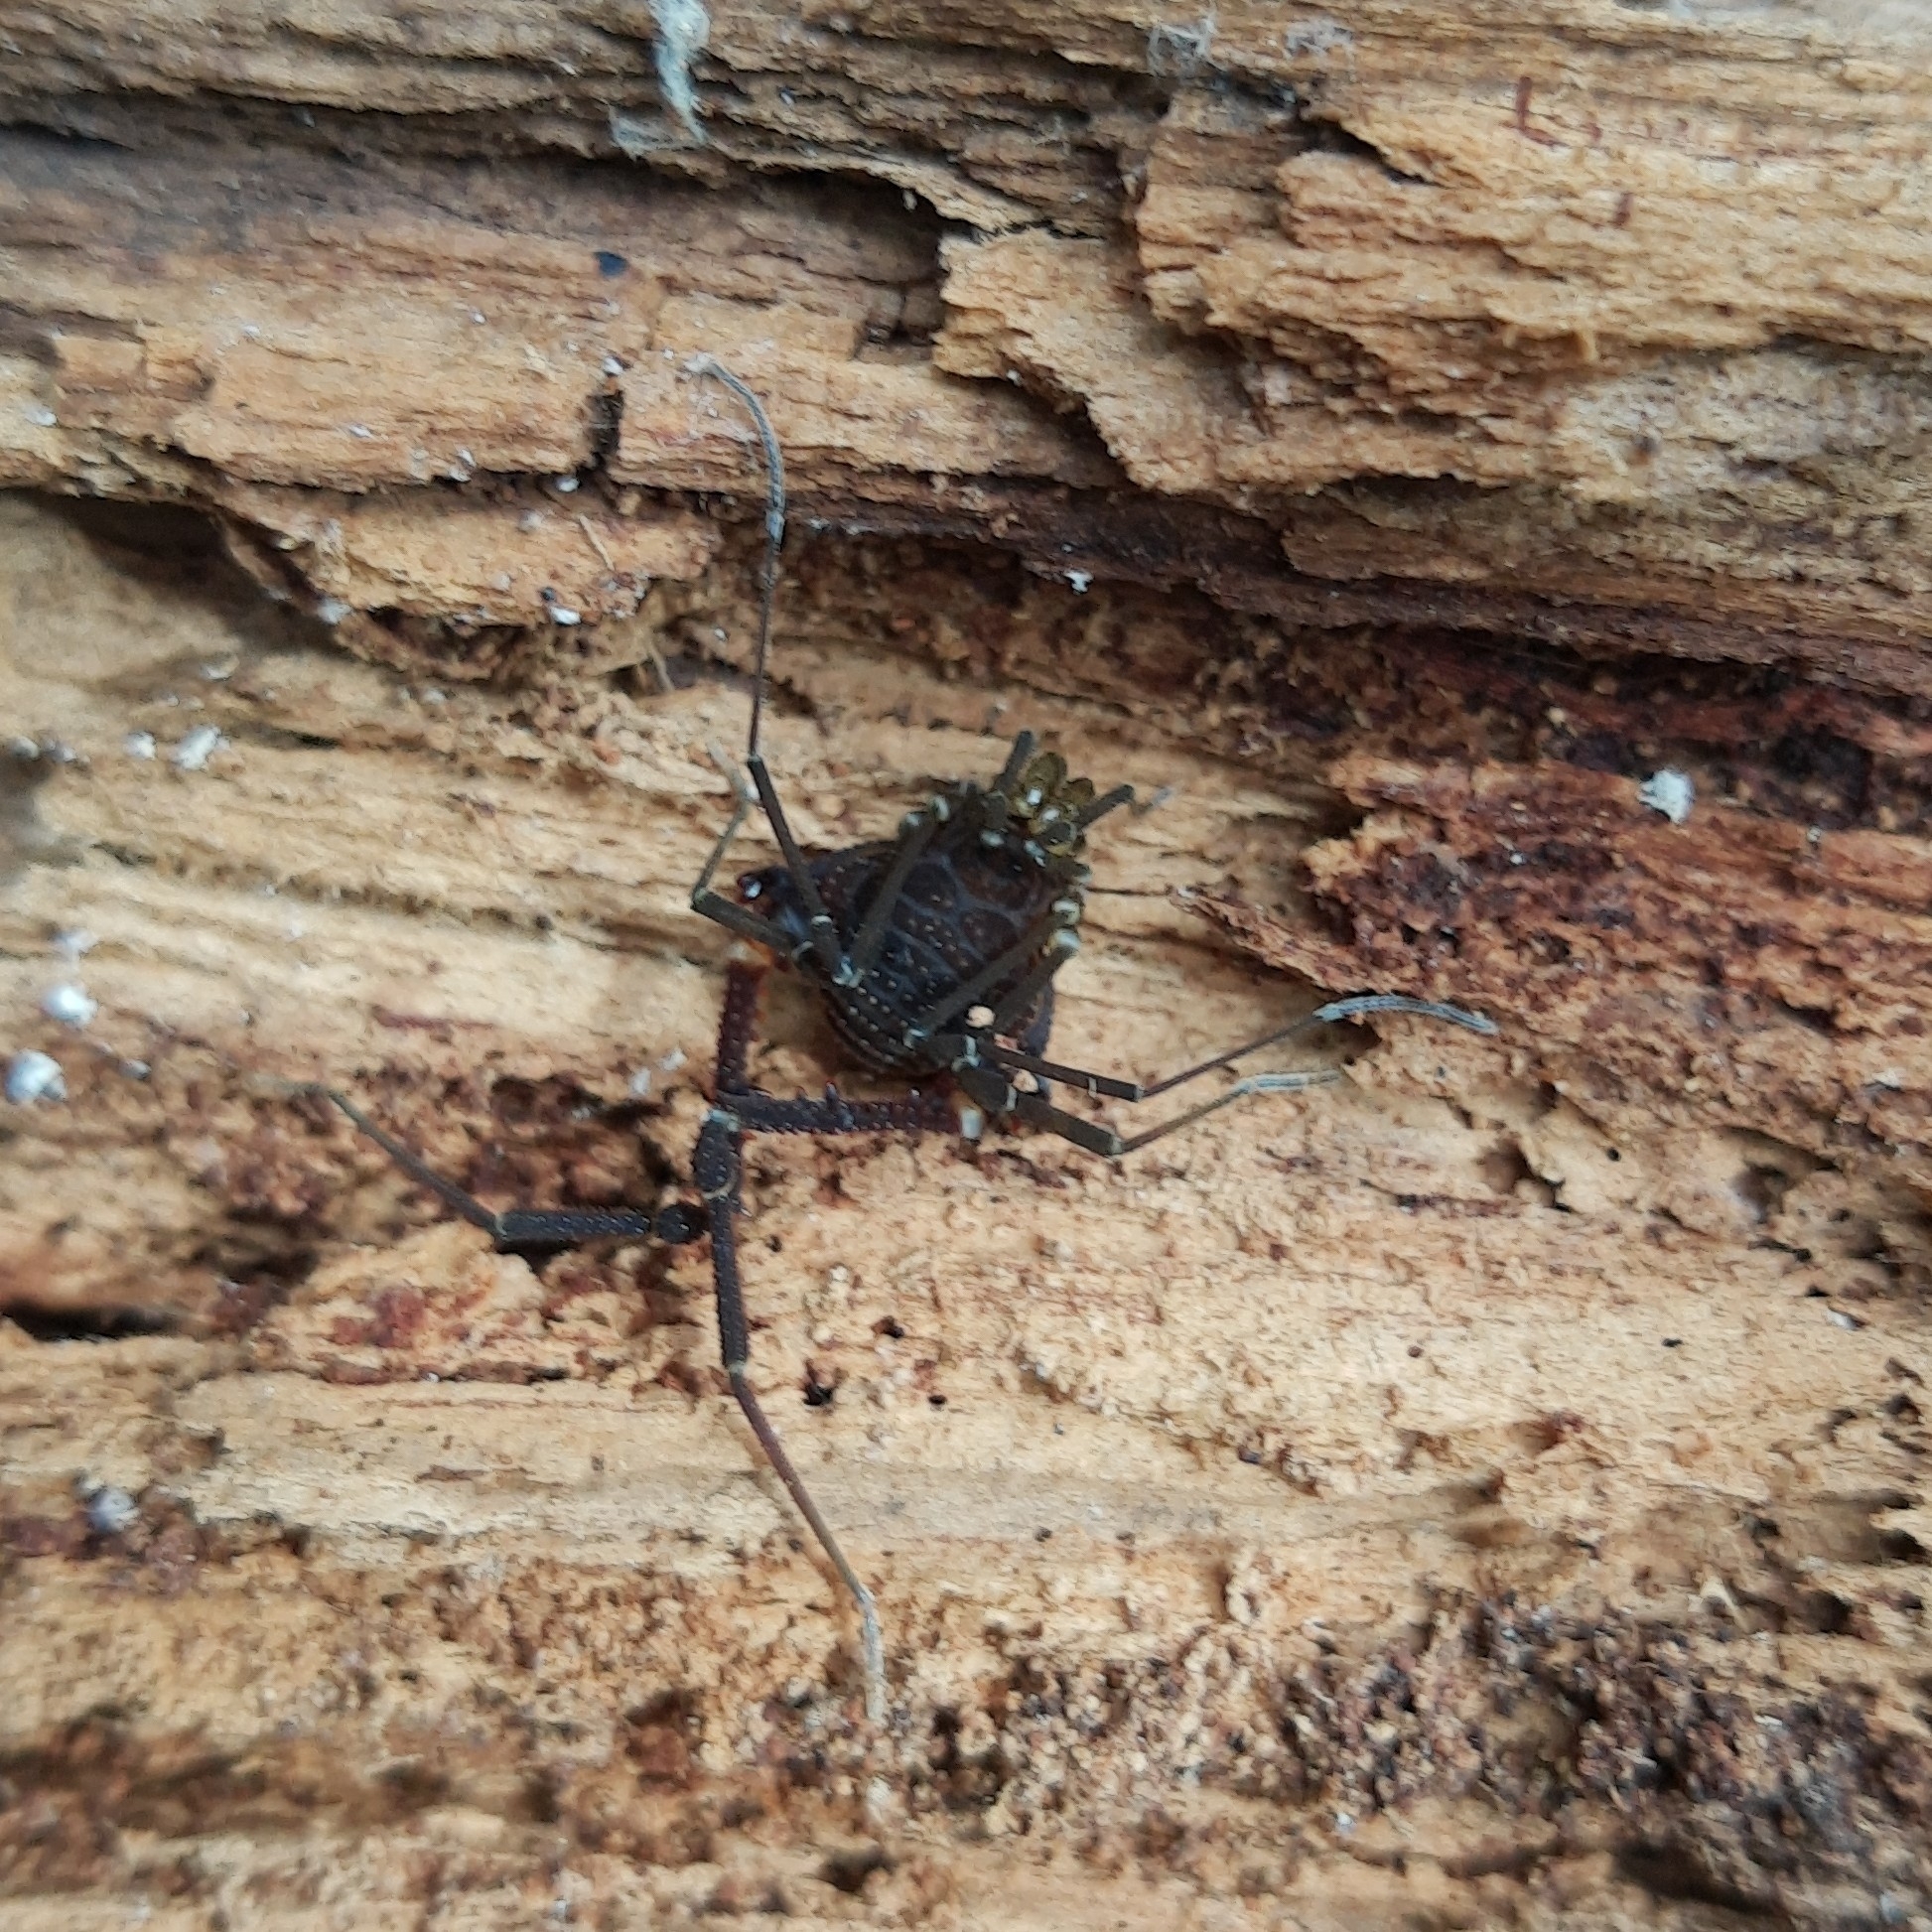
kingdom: Animalia
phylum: Arthropoda
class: Arachnida
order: Opiliones
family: Gonyleptidae
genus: Opisthoplatus
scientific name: Opisthoplatus prospicuus
